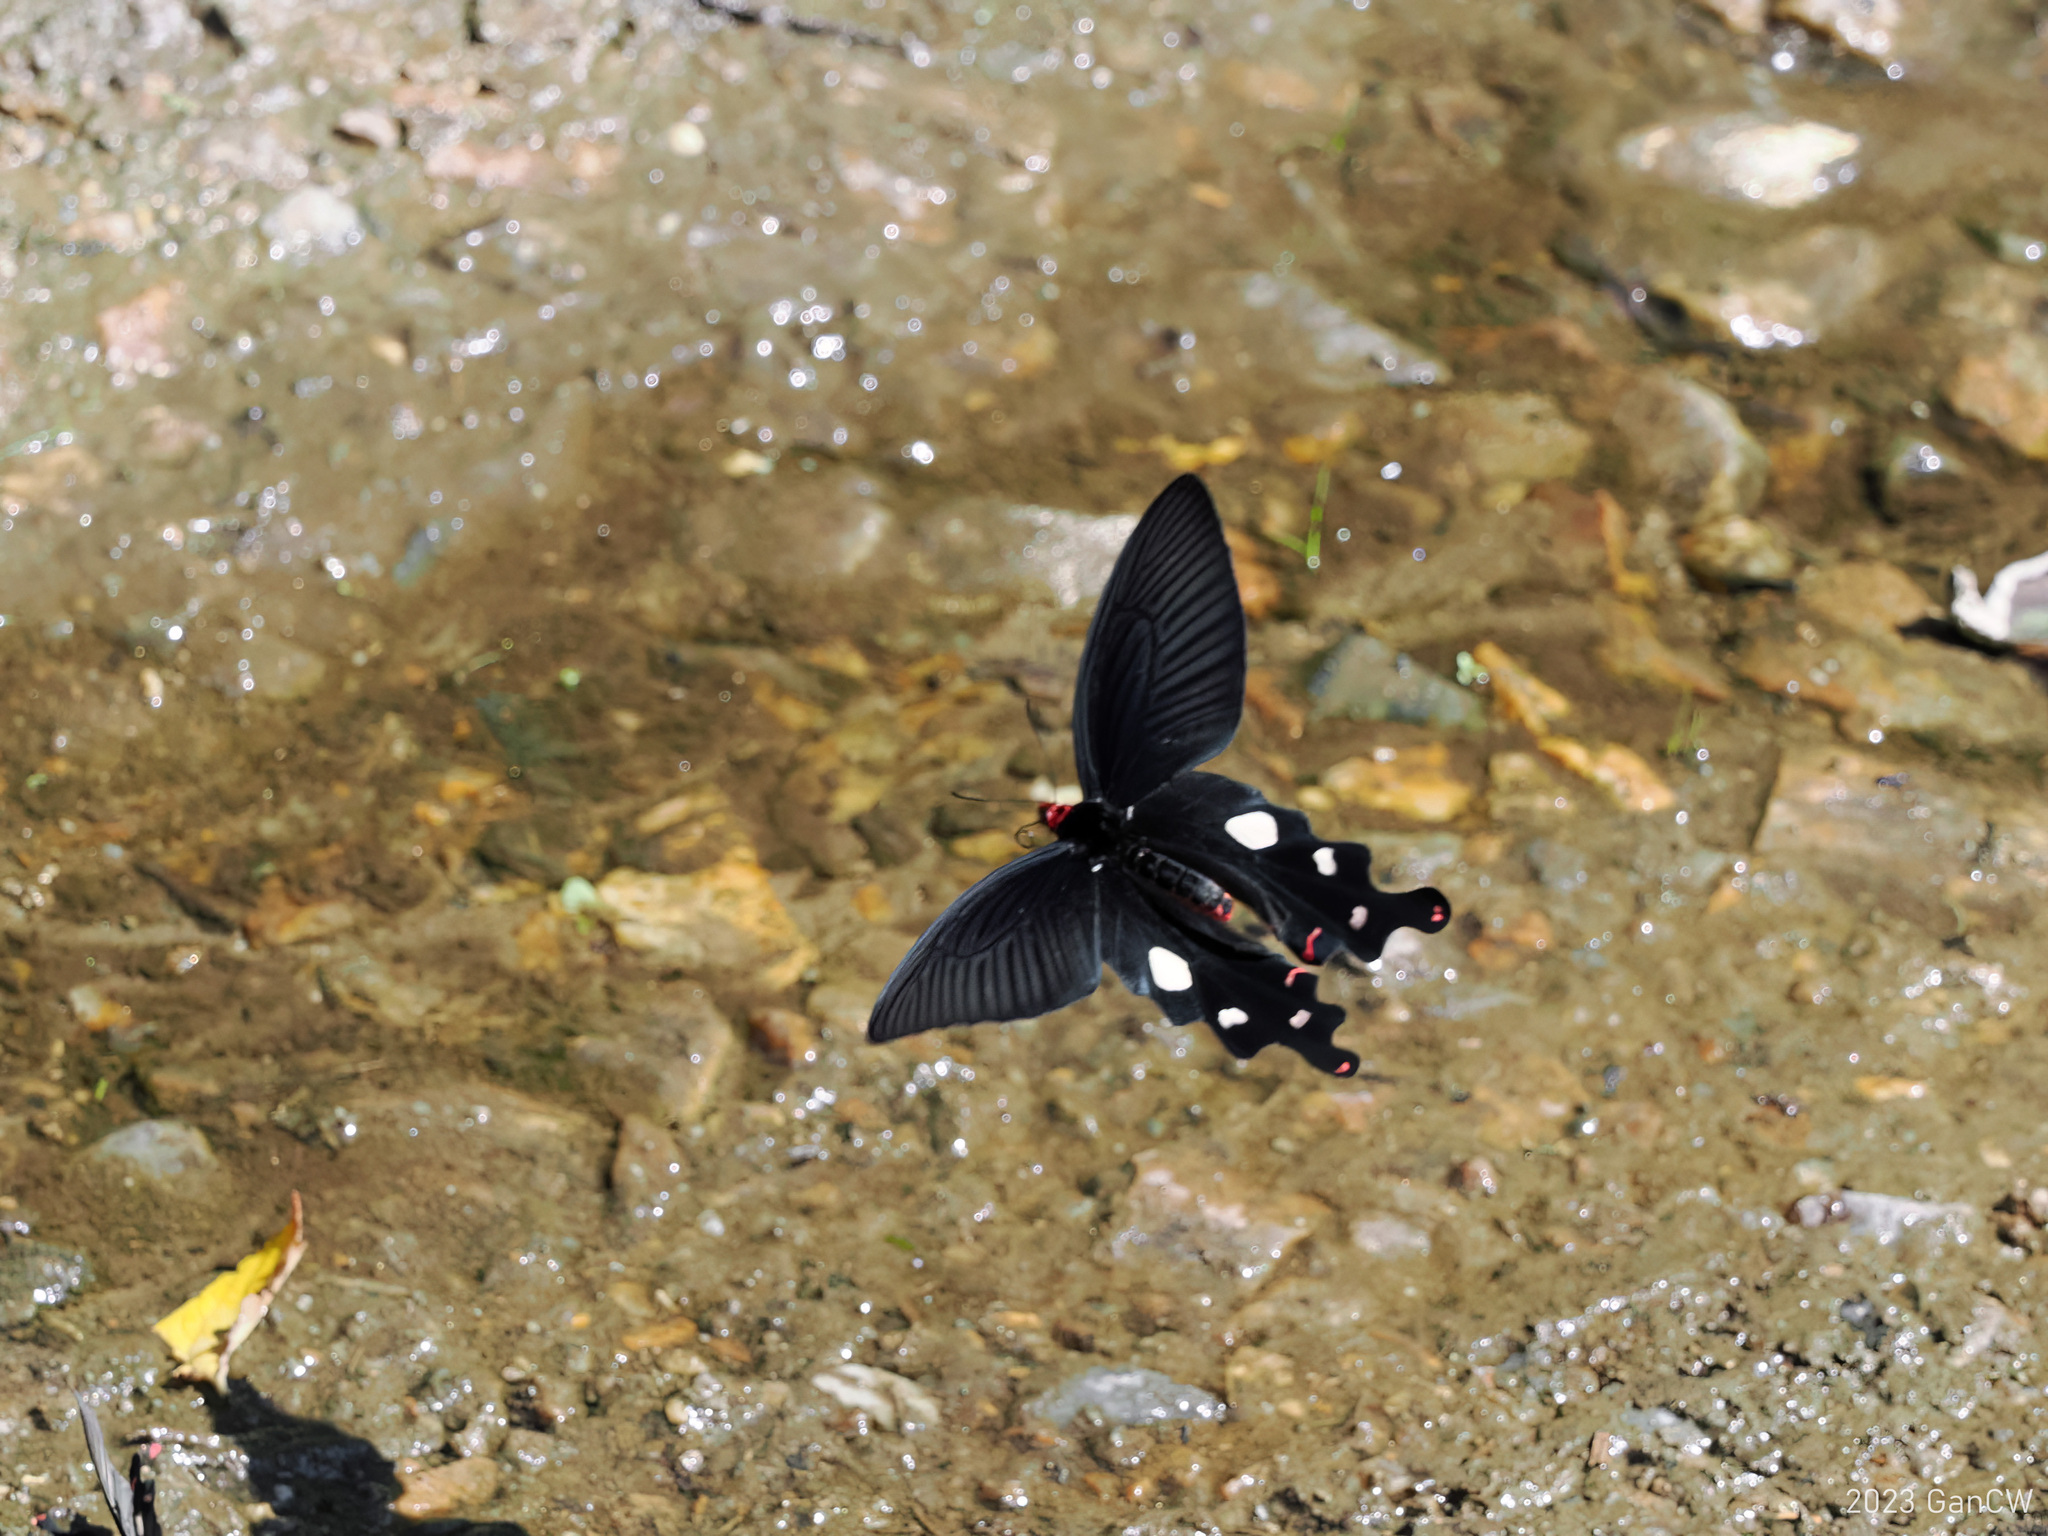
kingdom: Animalia
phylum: Arthropoda
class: Insecta
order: Lepidoptera
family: Papilionidae
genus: Byasa
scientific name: Byasa dasarada
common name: Great windmill
